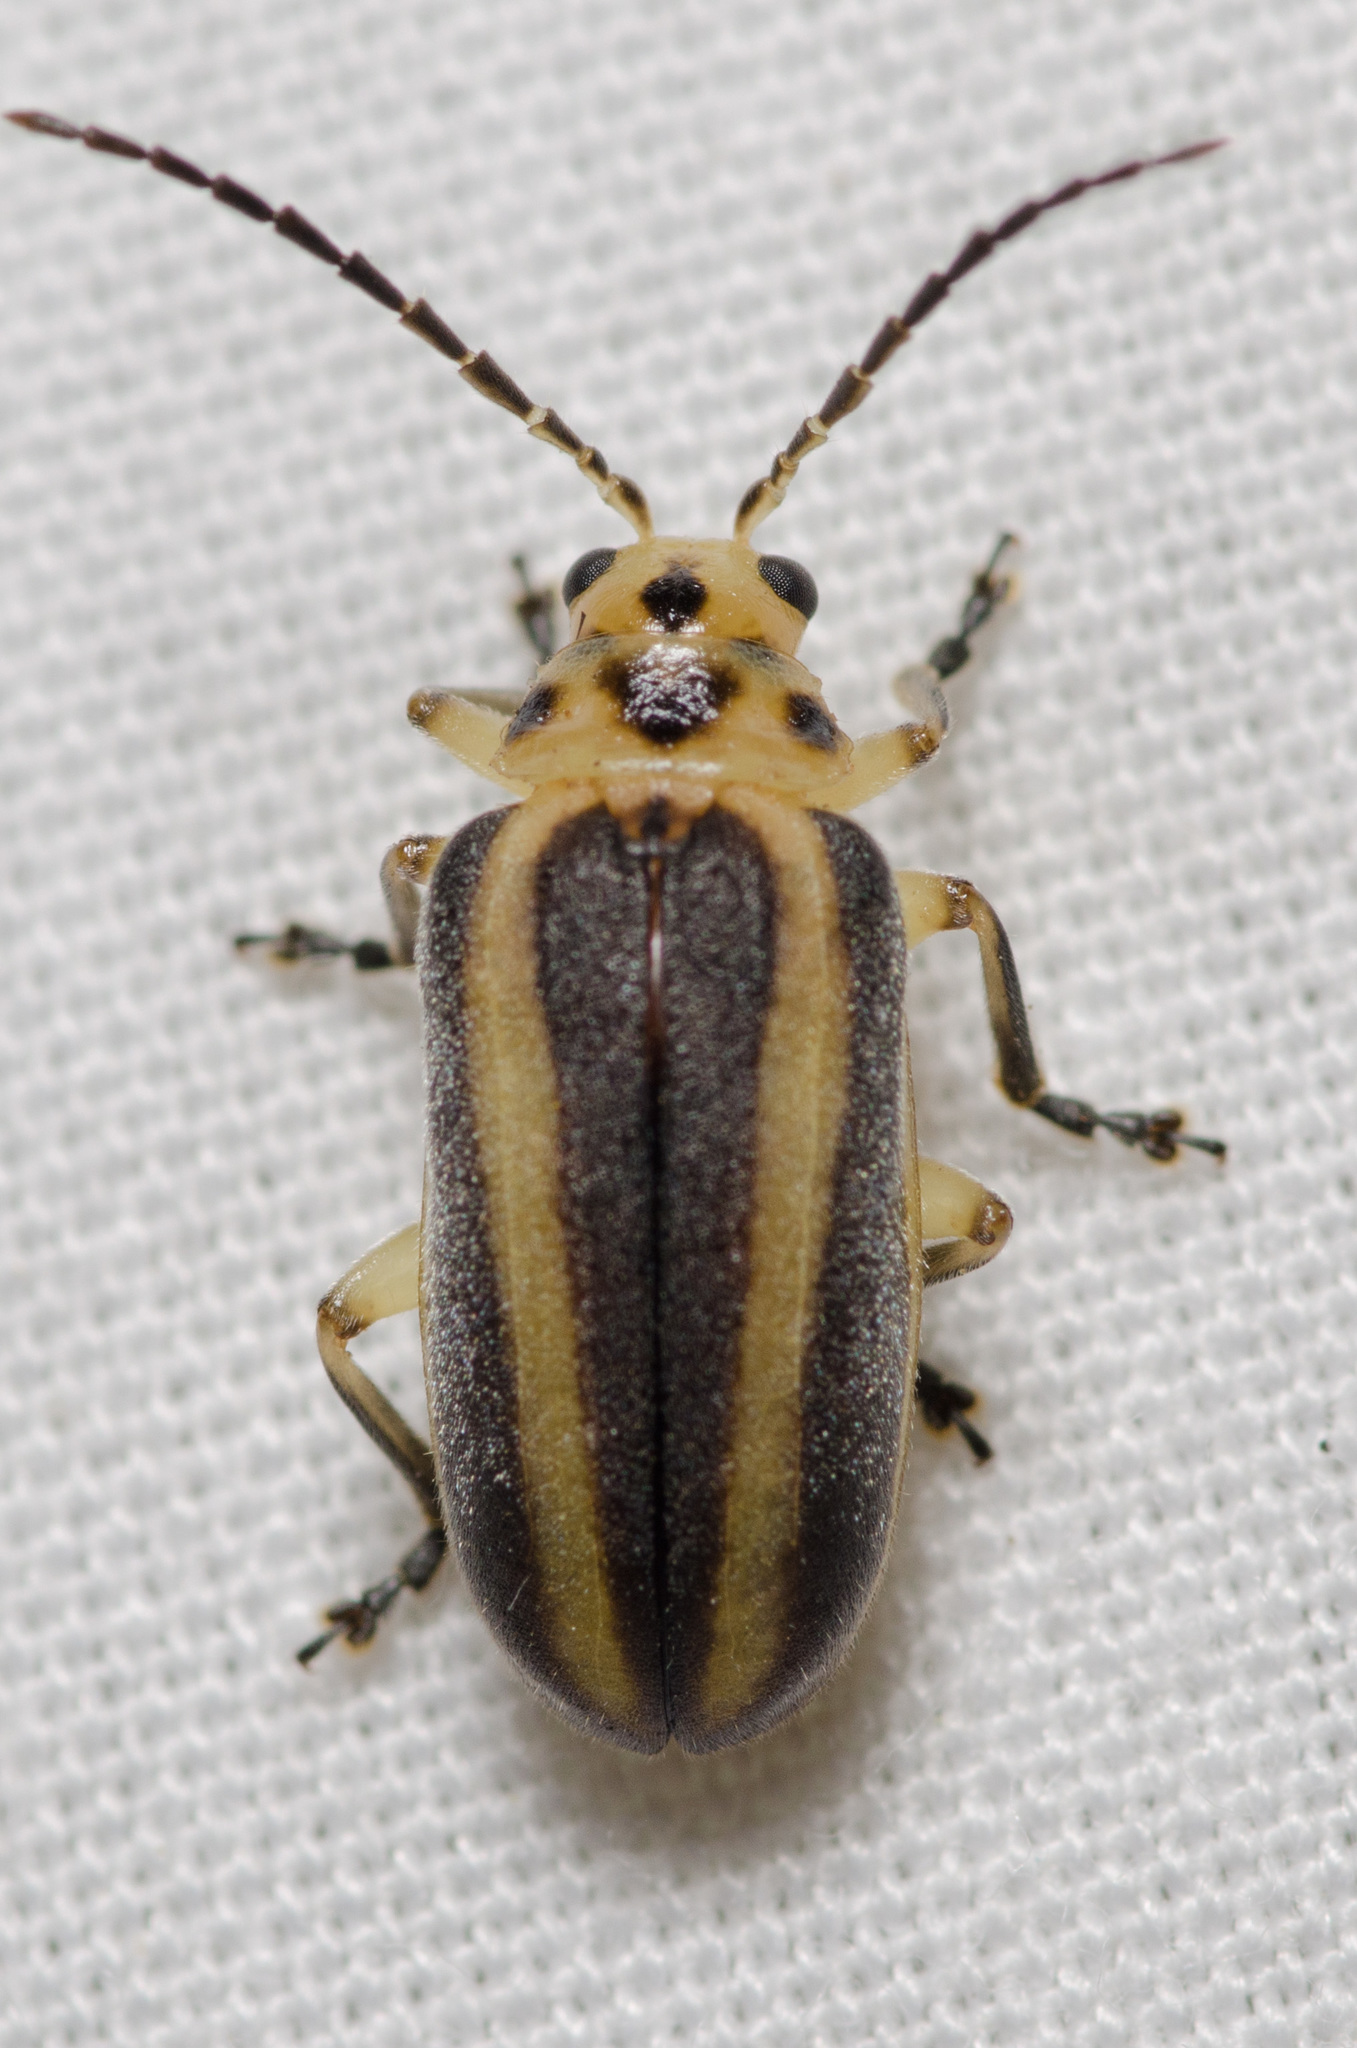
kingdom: Animalia
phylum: Arthropoda
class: Insecta
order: Coleoptera
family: Chrysomelidae
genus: Derospidea
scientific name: Derospidea brevicollis
